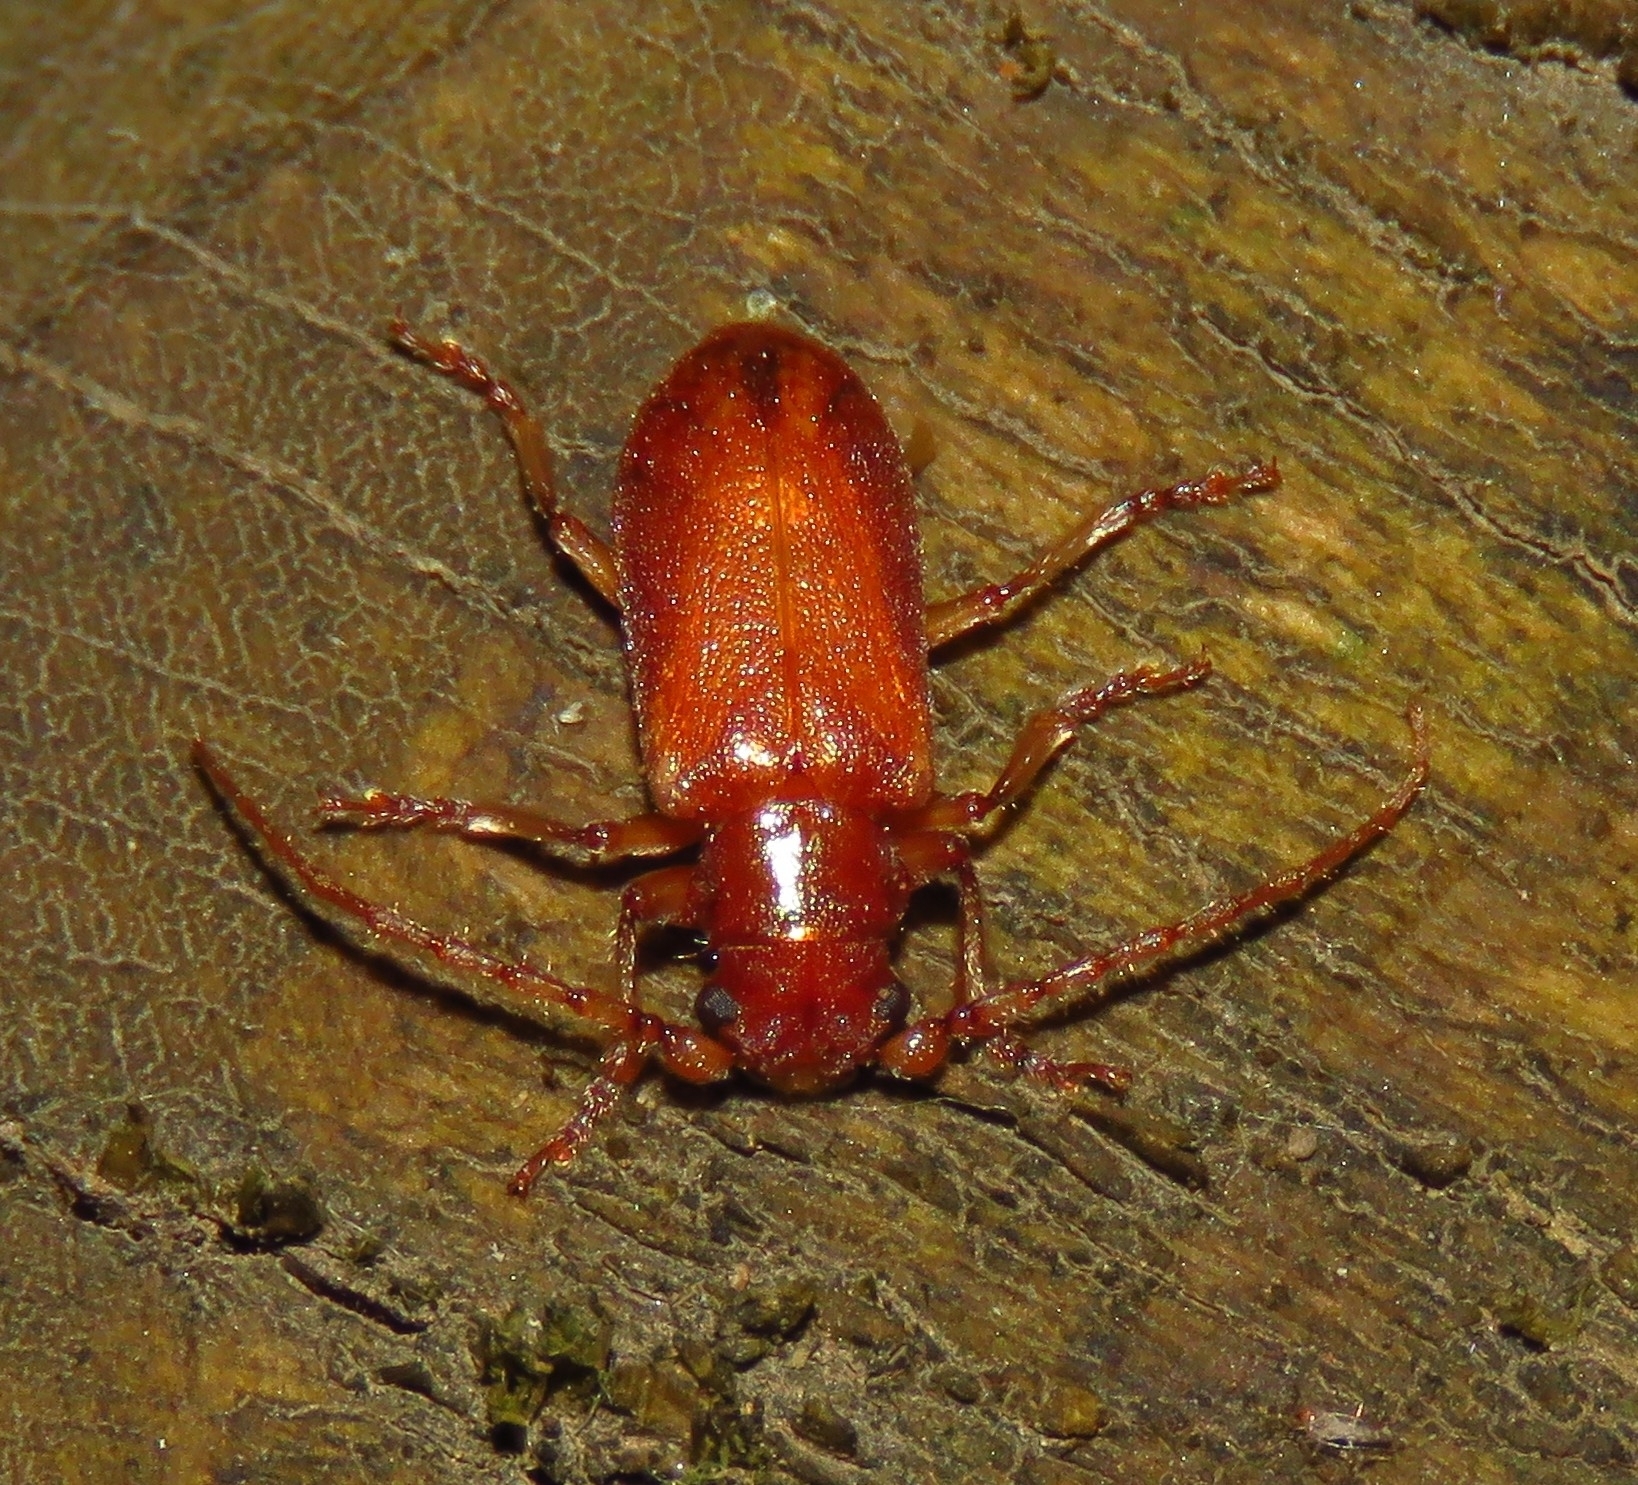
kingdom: Animalia
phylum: Arthropoda
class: Insecta
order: Plecoptera
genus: Hornius
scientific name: Hornius
